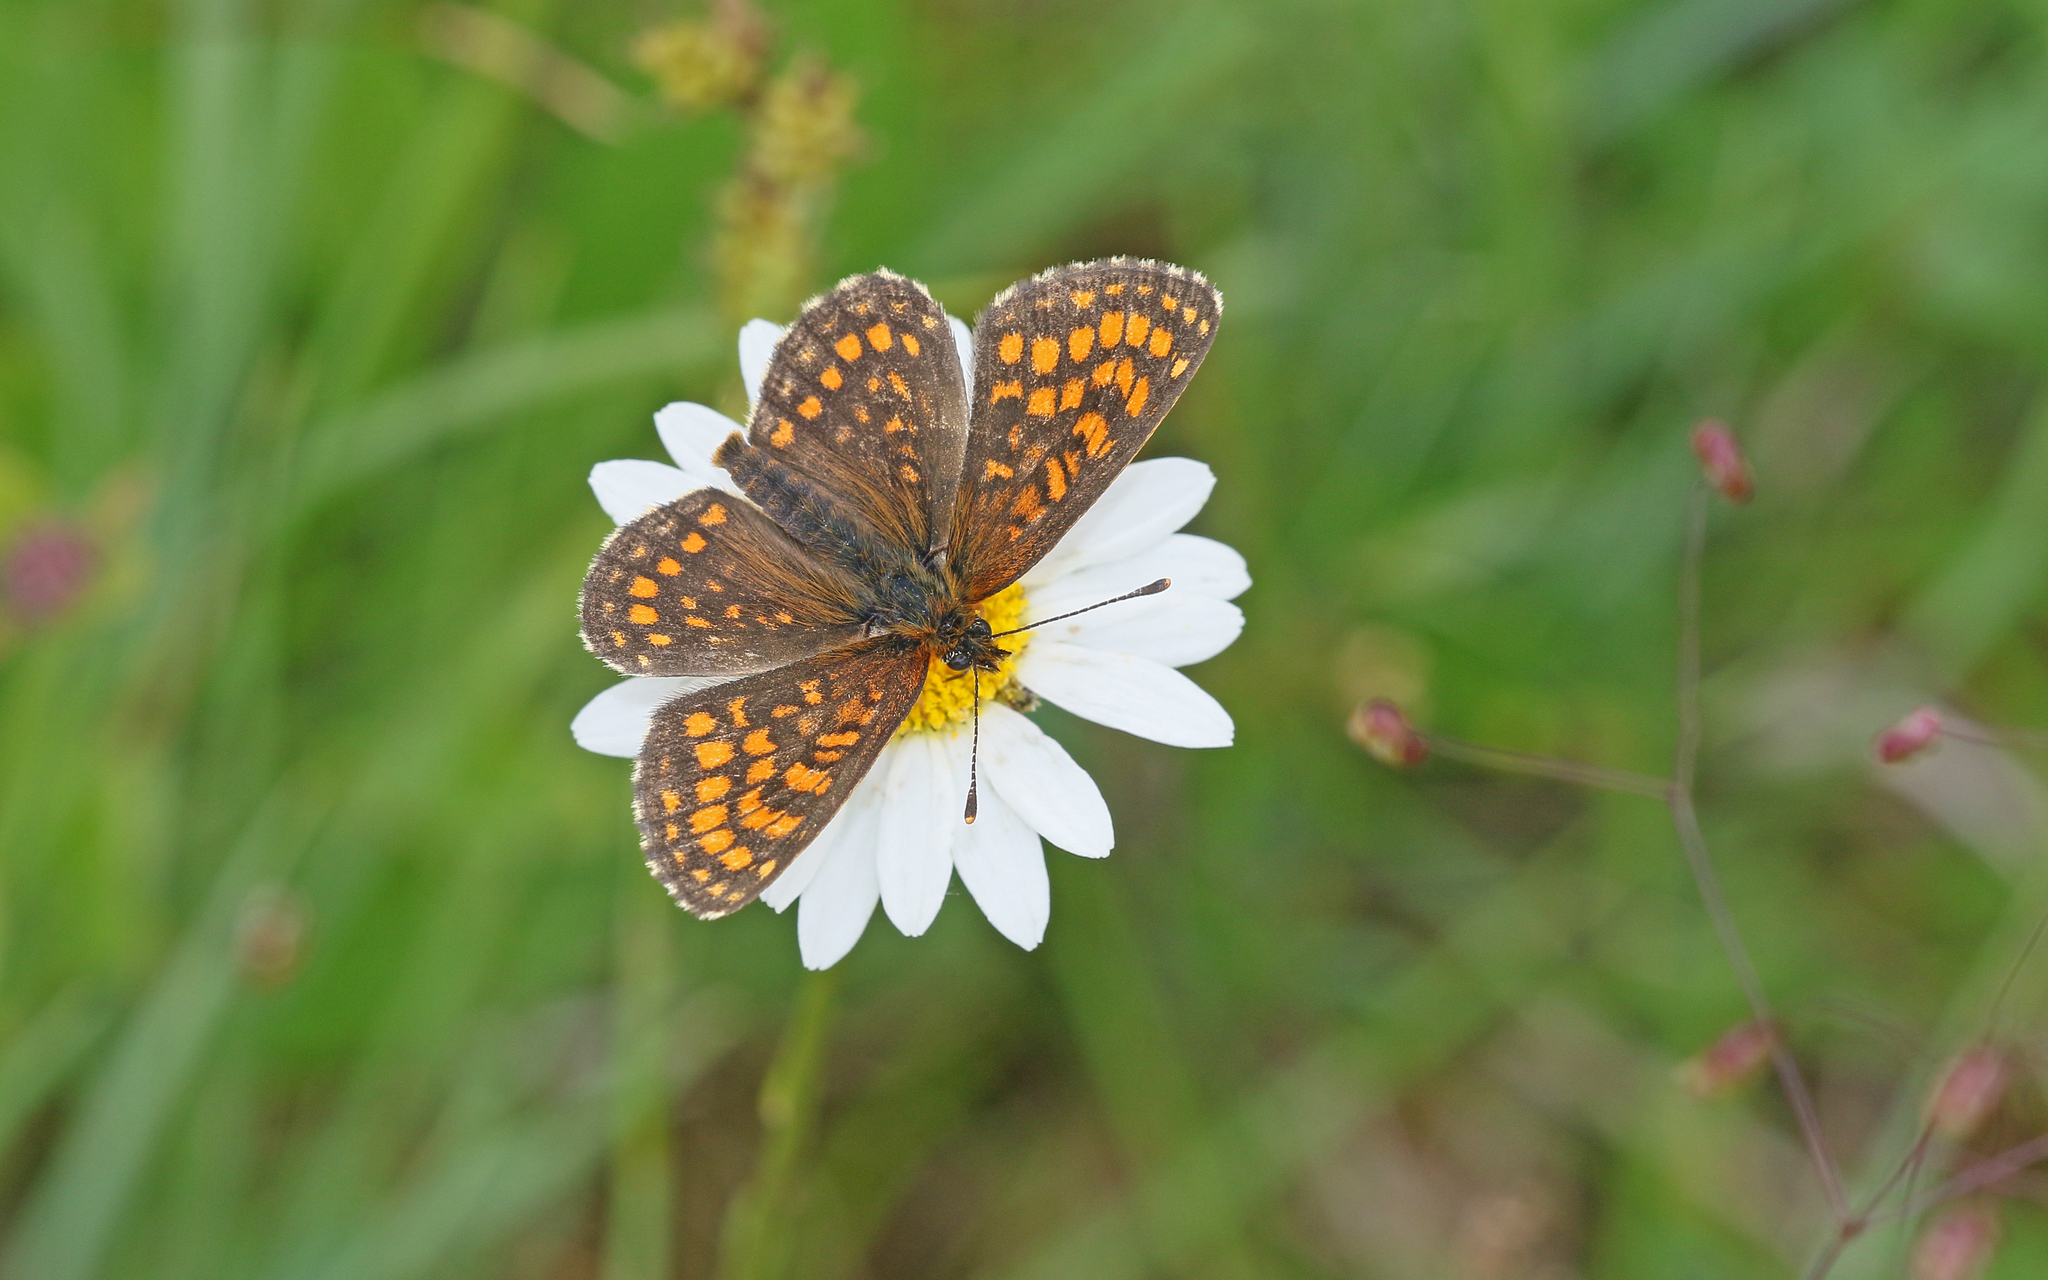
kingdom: Animalia
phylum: Arthropoda
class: Insecta
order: Lepidoptera
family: Nymphalidae
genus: Melitaea
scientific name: Melitaea athalia
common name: Heath fritillary
